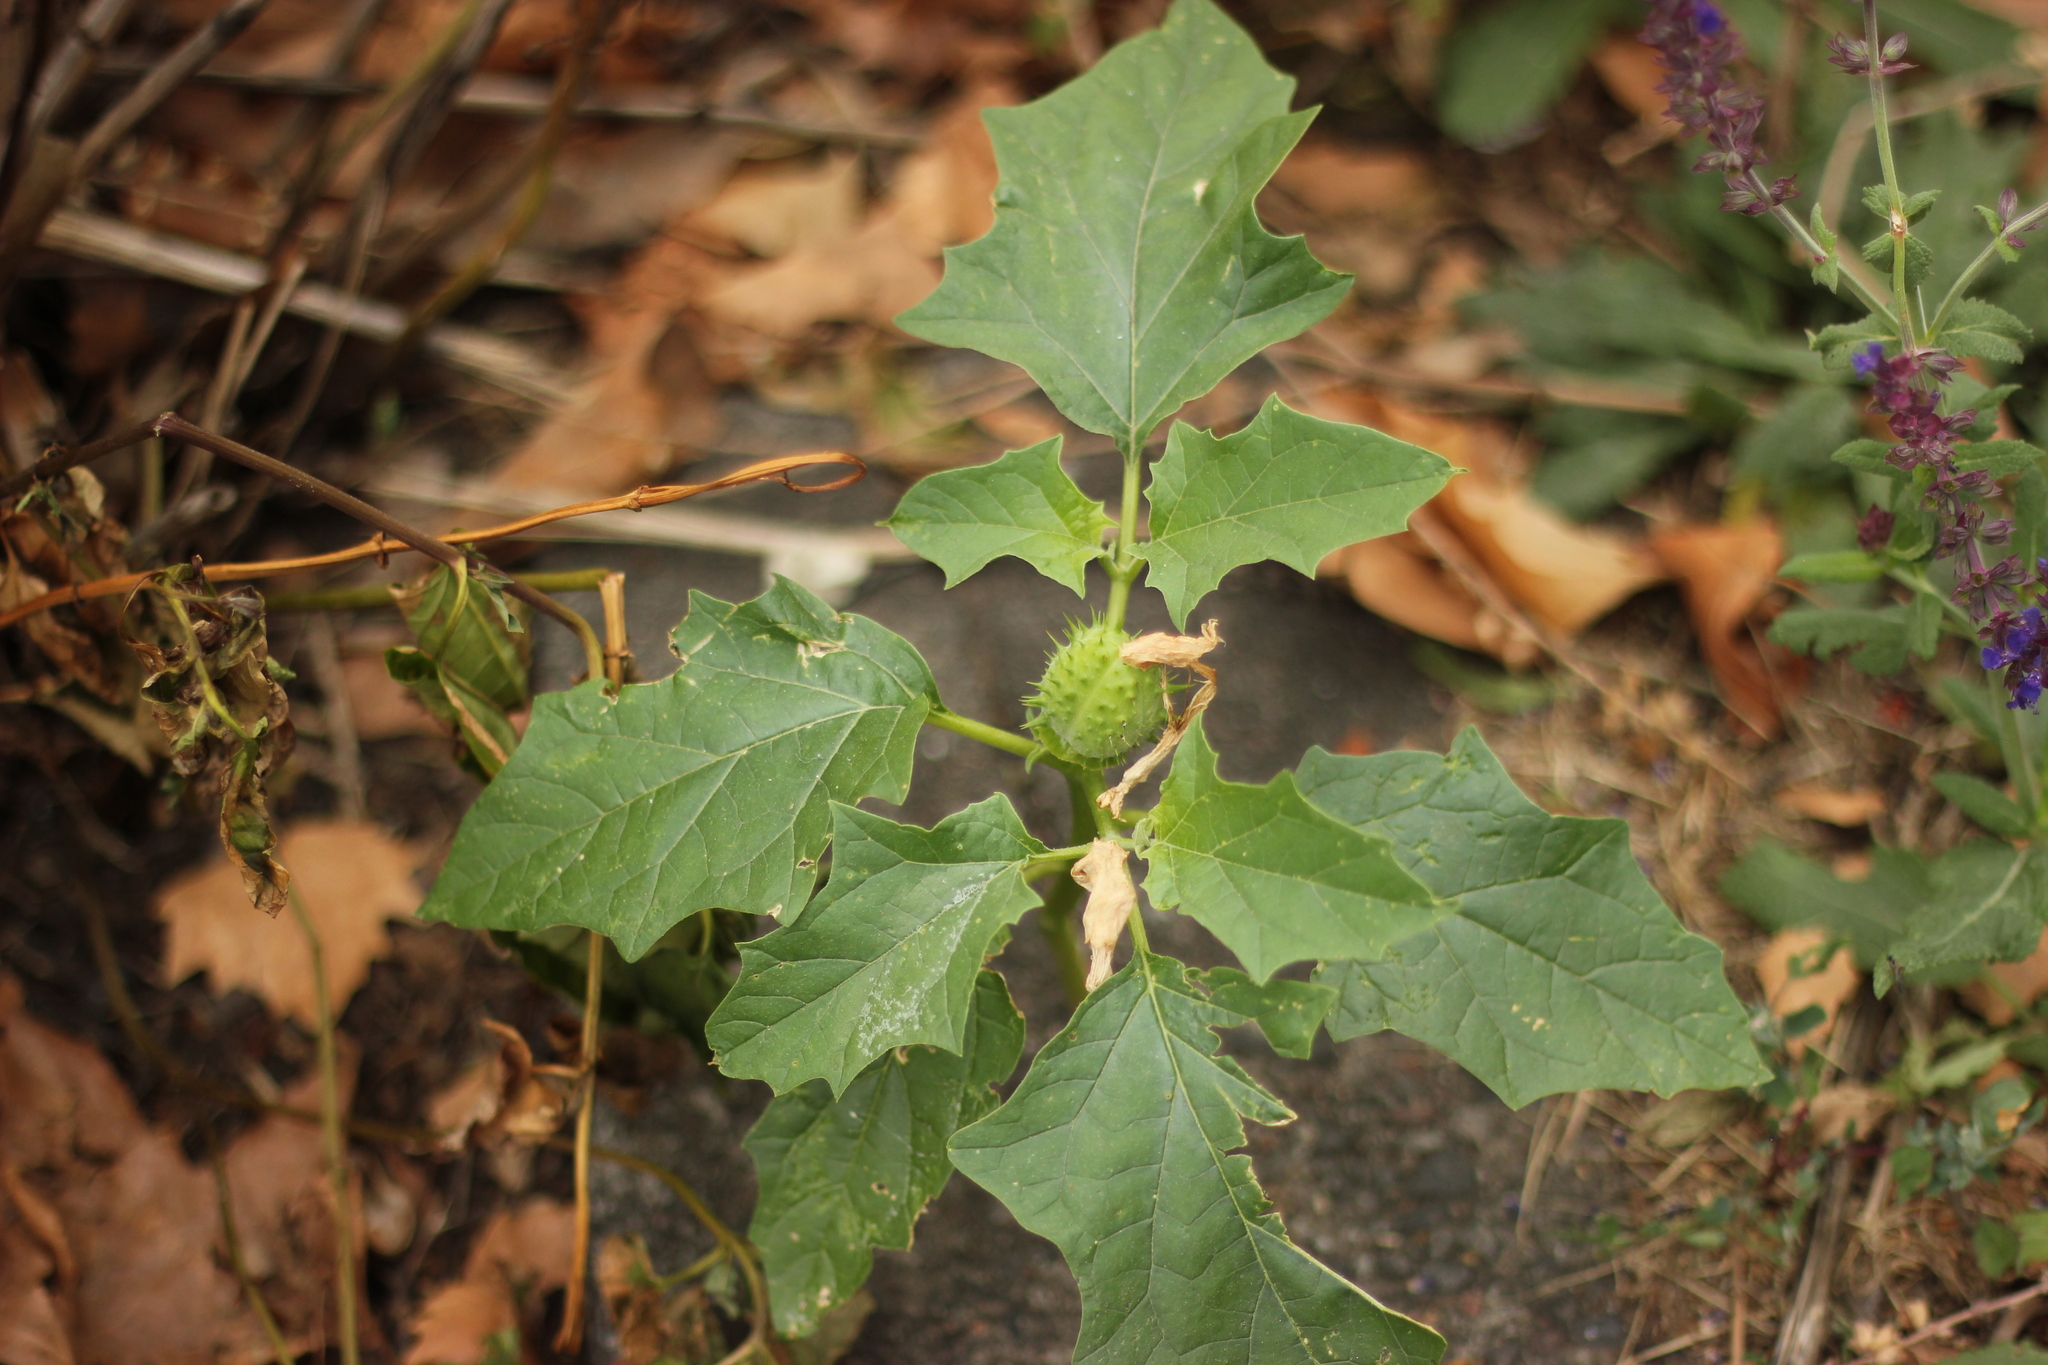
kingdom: Plantae
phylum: Tracheophyta
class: Magnoliopsida
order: Solanales
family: Solanaceae
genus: Datura
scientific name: Datura stramonium
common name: Thorn-apple
